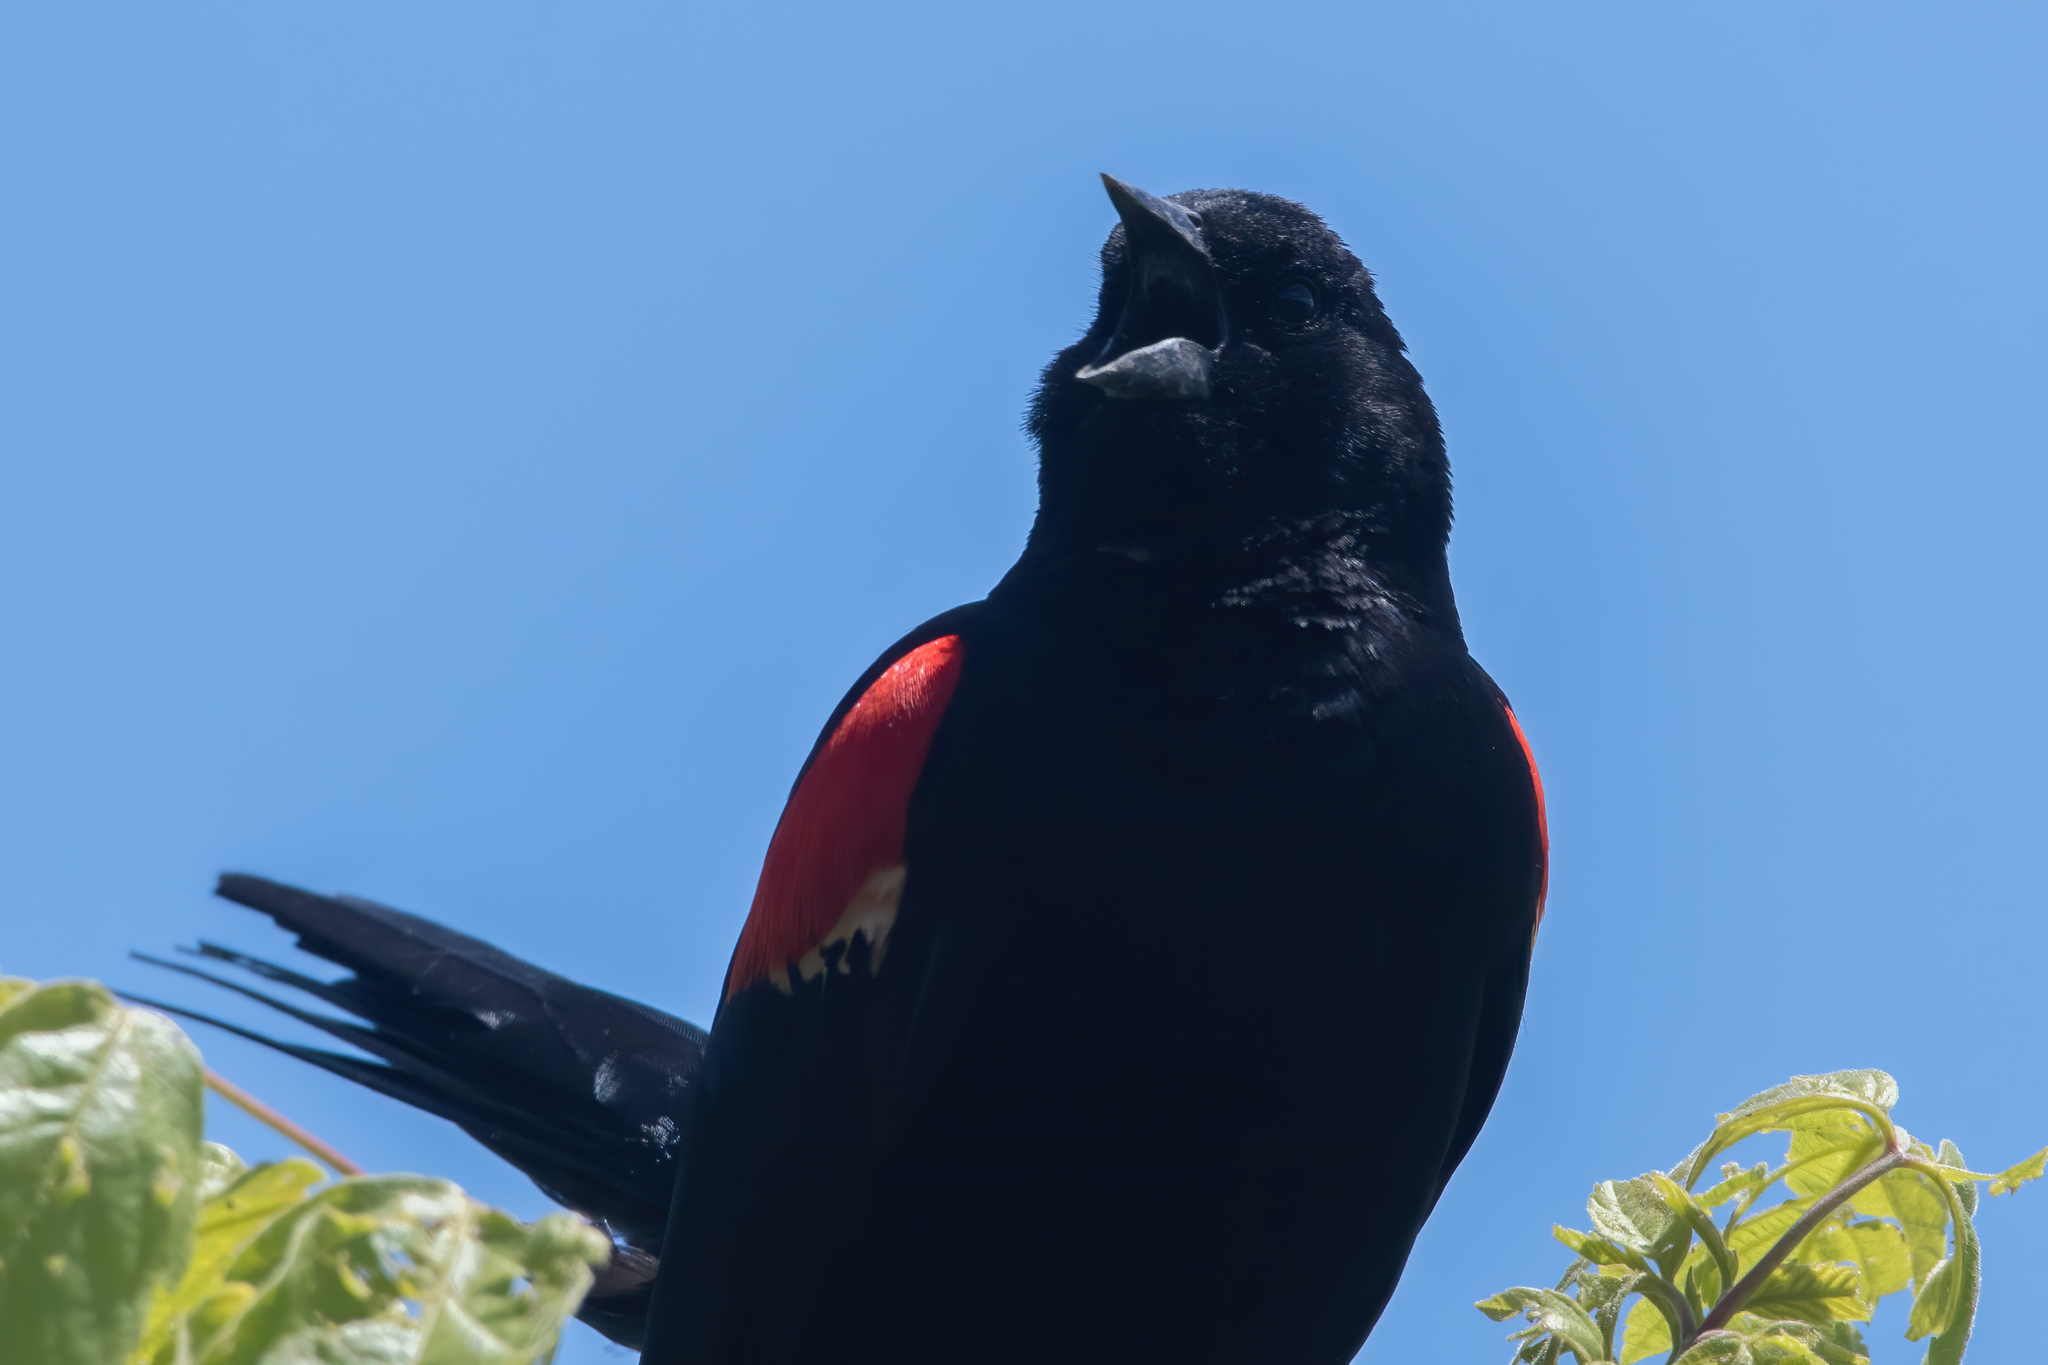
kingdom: Animalia
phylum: Chordata
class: Aves
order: Passeriformes
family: Icteridae
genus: Agelaius
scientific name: Agelaius phoeniceus
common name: Red-winged blackbird
